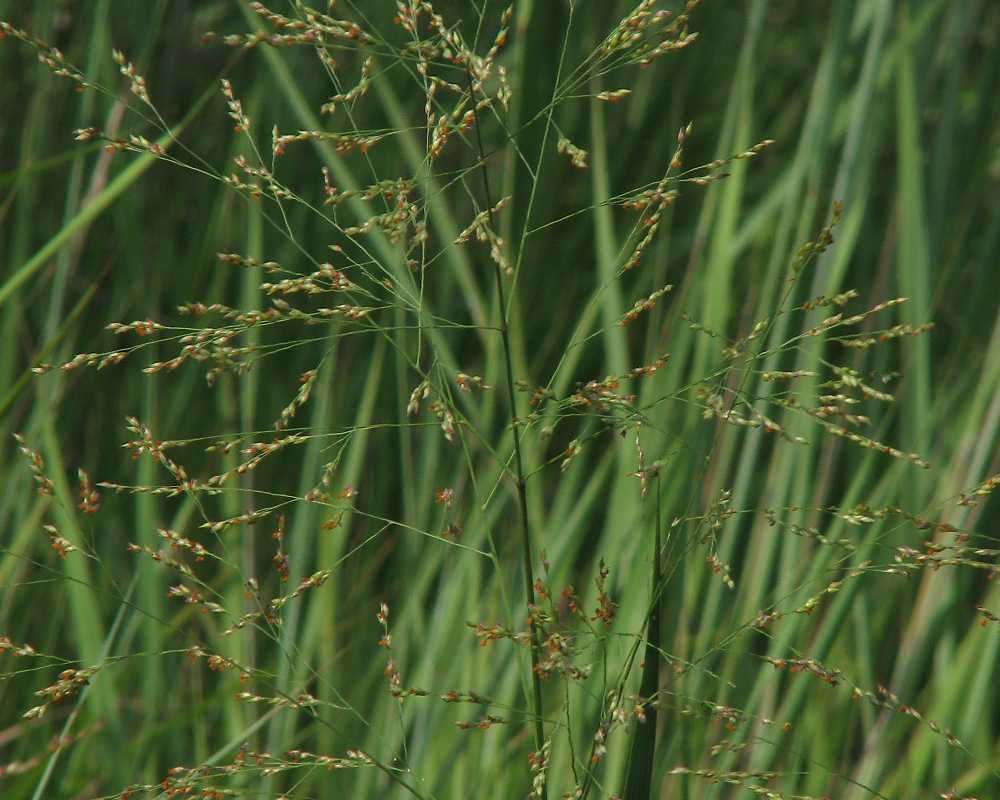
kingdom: Plantae
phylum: Tracheophyta
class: Liliopsida
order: Poales
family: Poaceae
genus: Panicum
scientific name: Panicum virgatum
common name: Switchgrass
